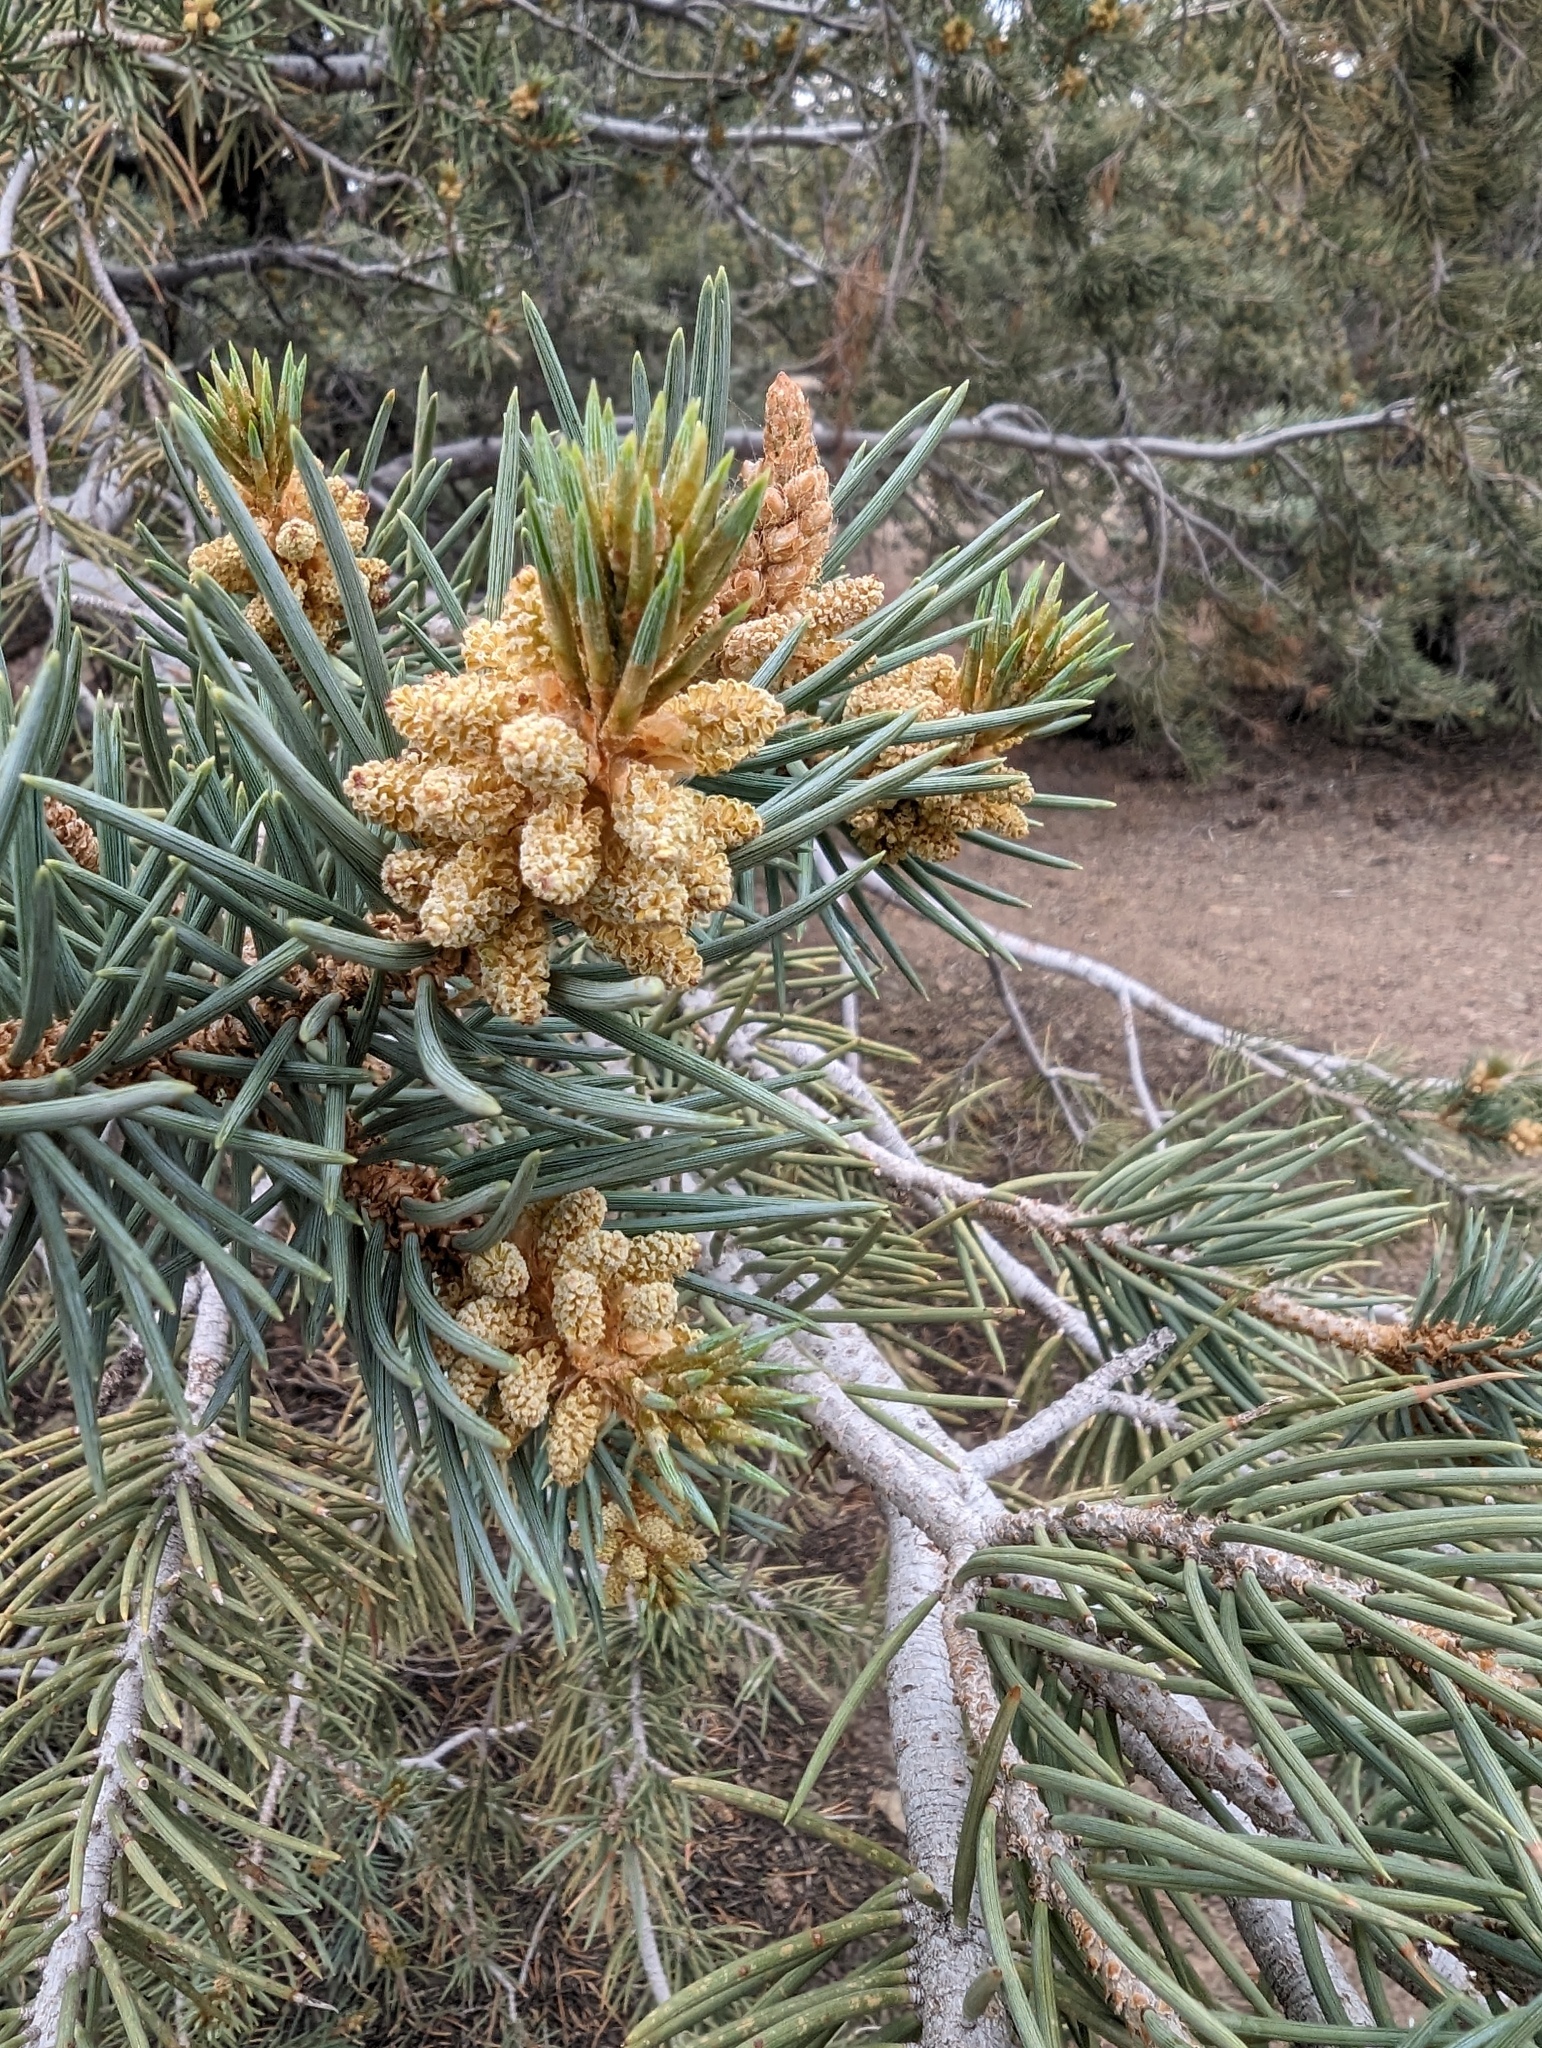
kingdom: Plantae
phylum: Tracheophyta
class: Pinopsida
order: Pinales
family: Pinaceae
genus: Pinus
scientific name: Pinus monophylla
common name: One-leaved nut pine
